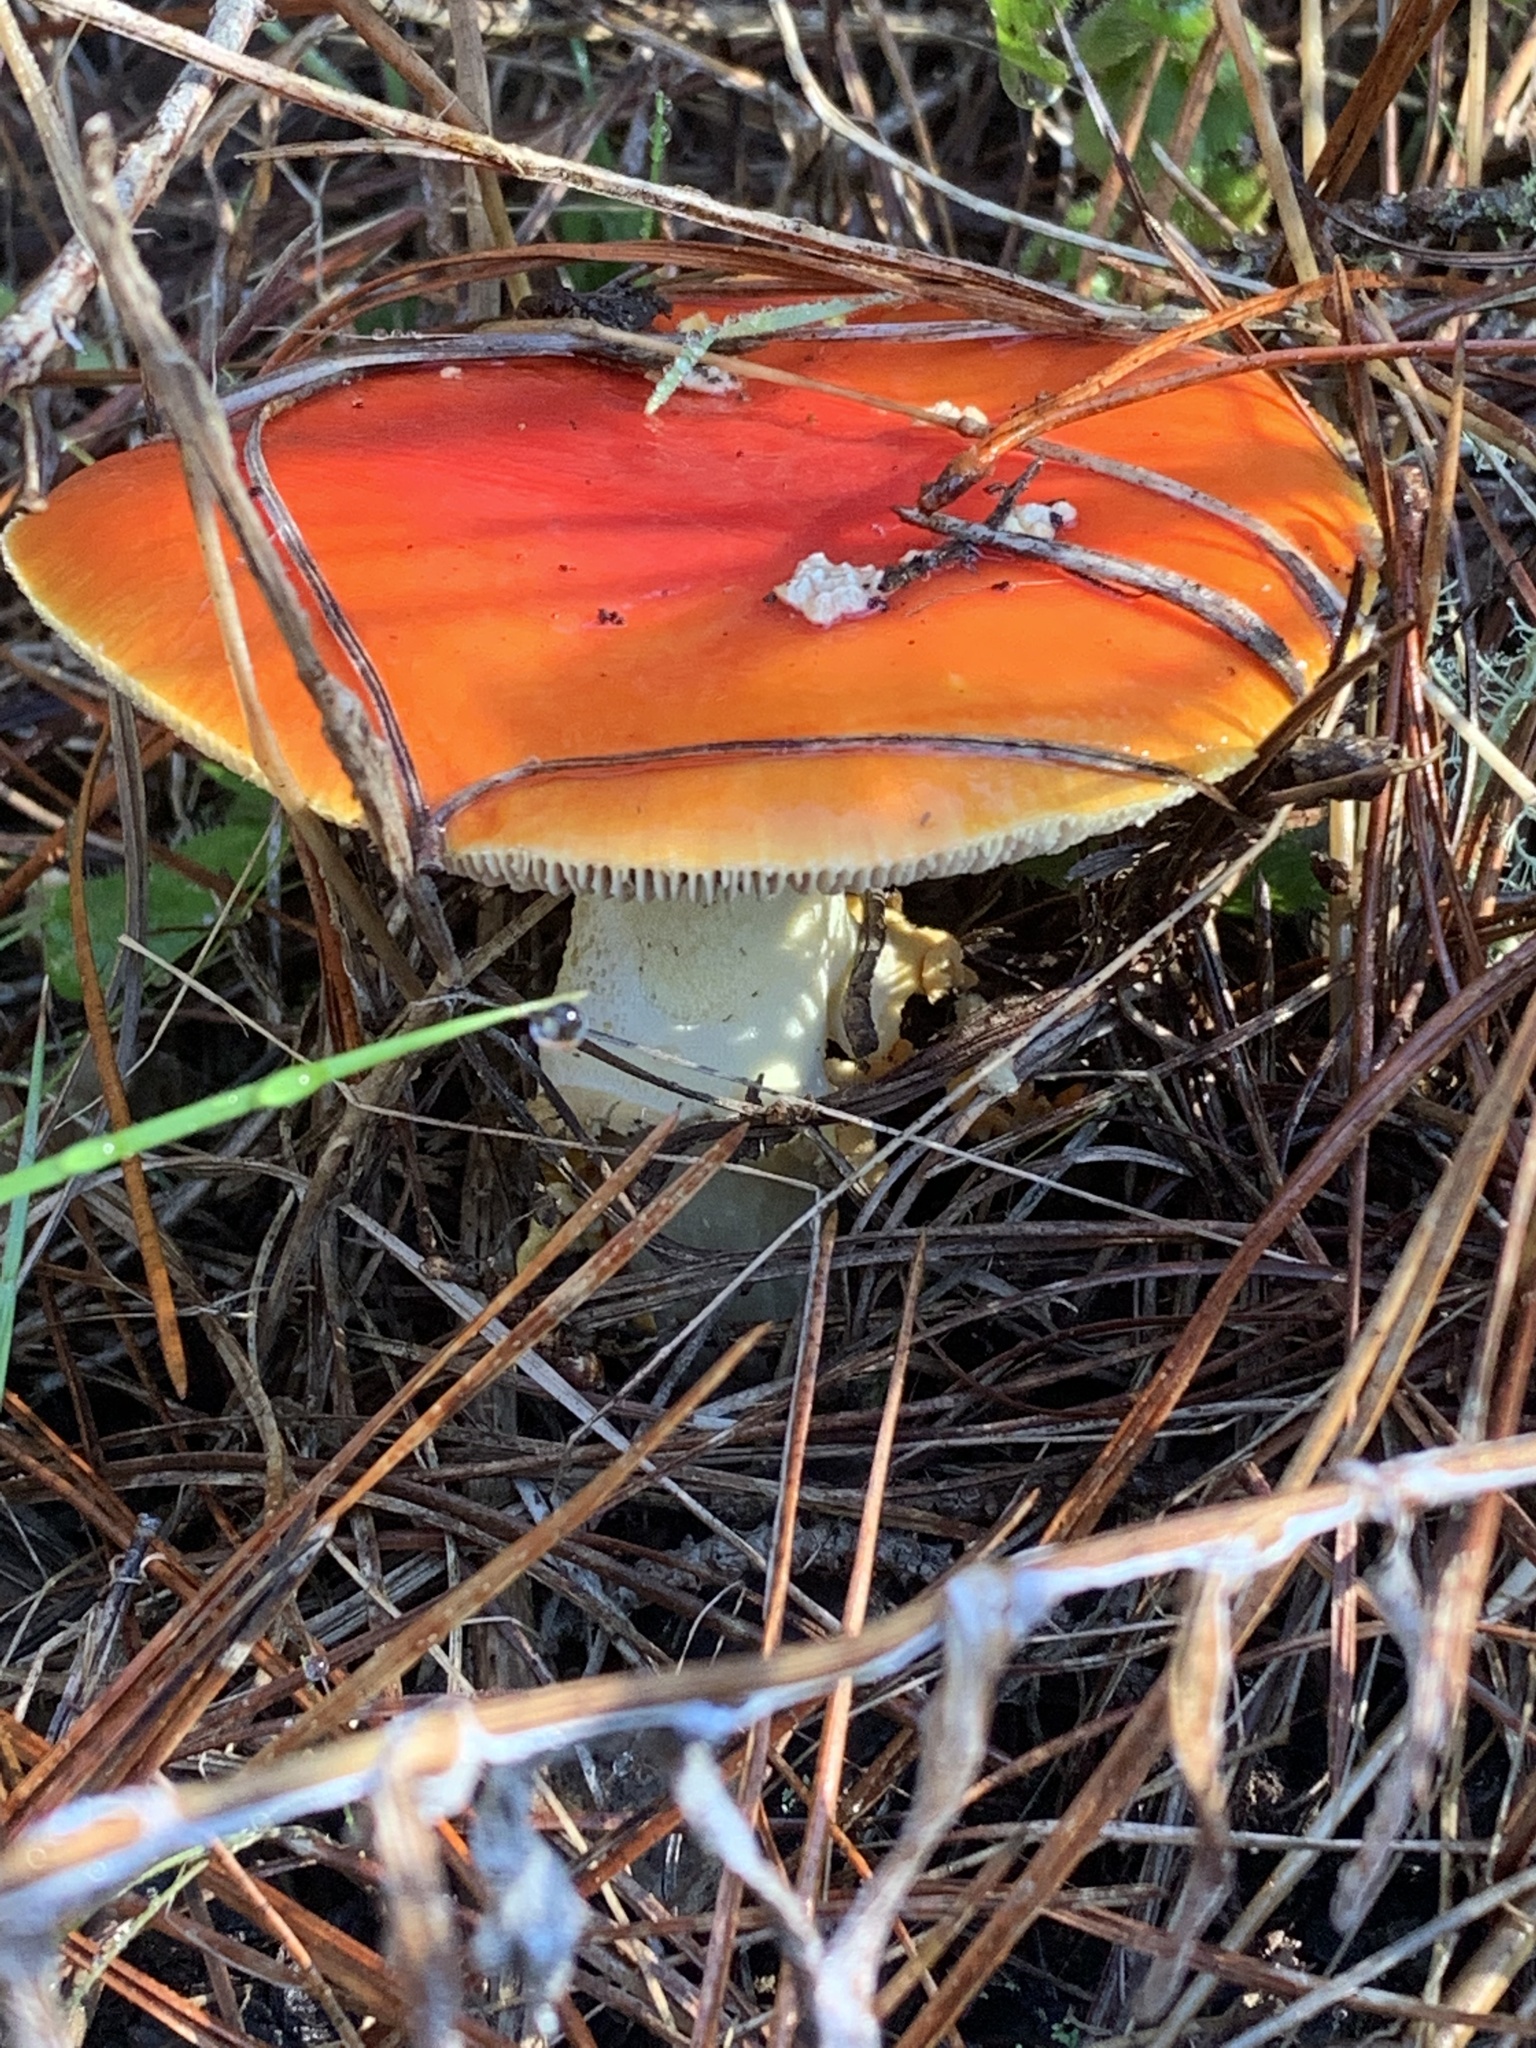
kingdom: Fungi
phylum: Basidiomycota
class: Agaricomycetes
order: Agaricales
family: Amanitaceae
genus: Amanita
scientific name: Amanita muscaria
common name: Fly agaric
